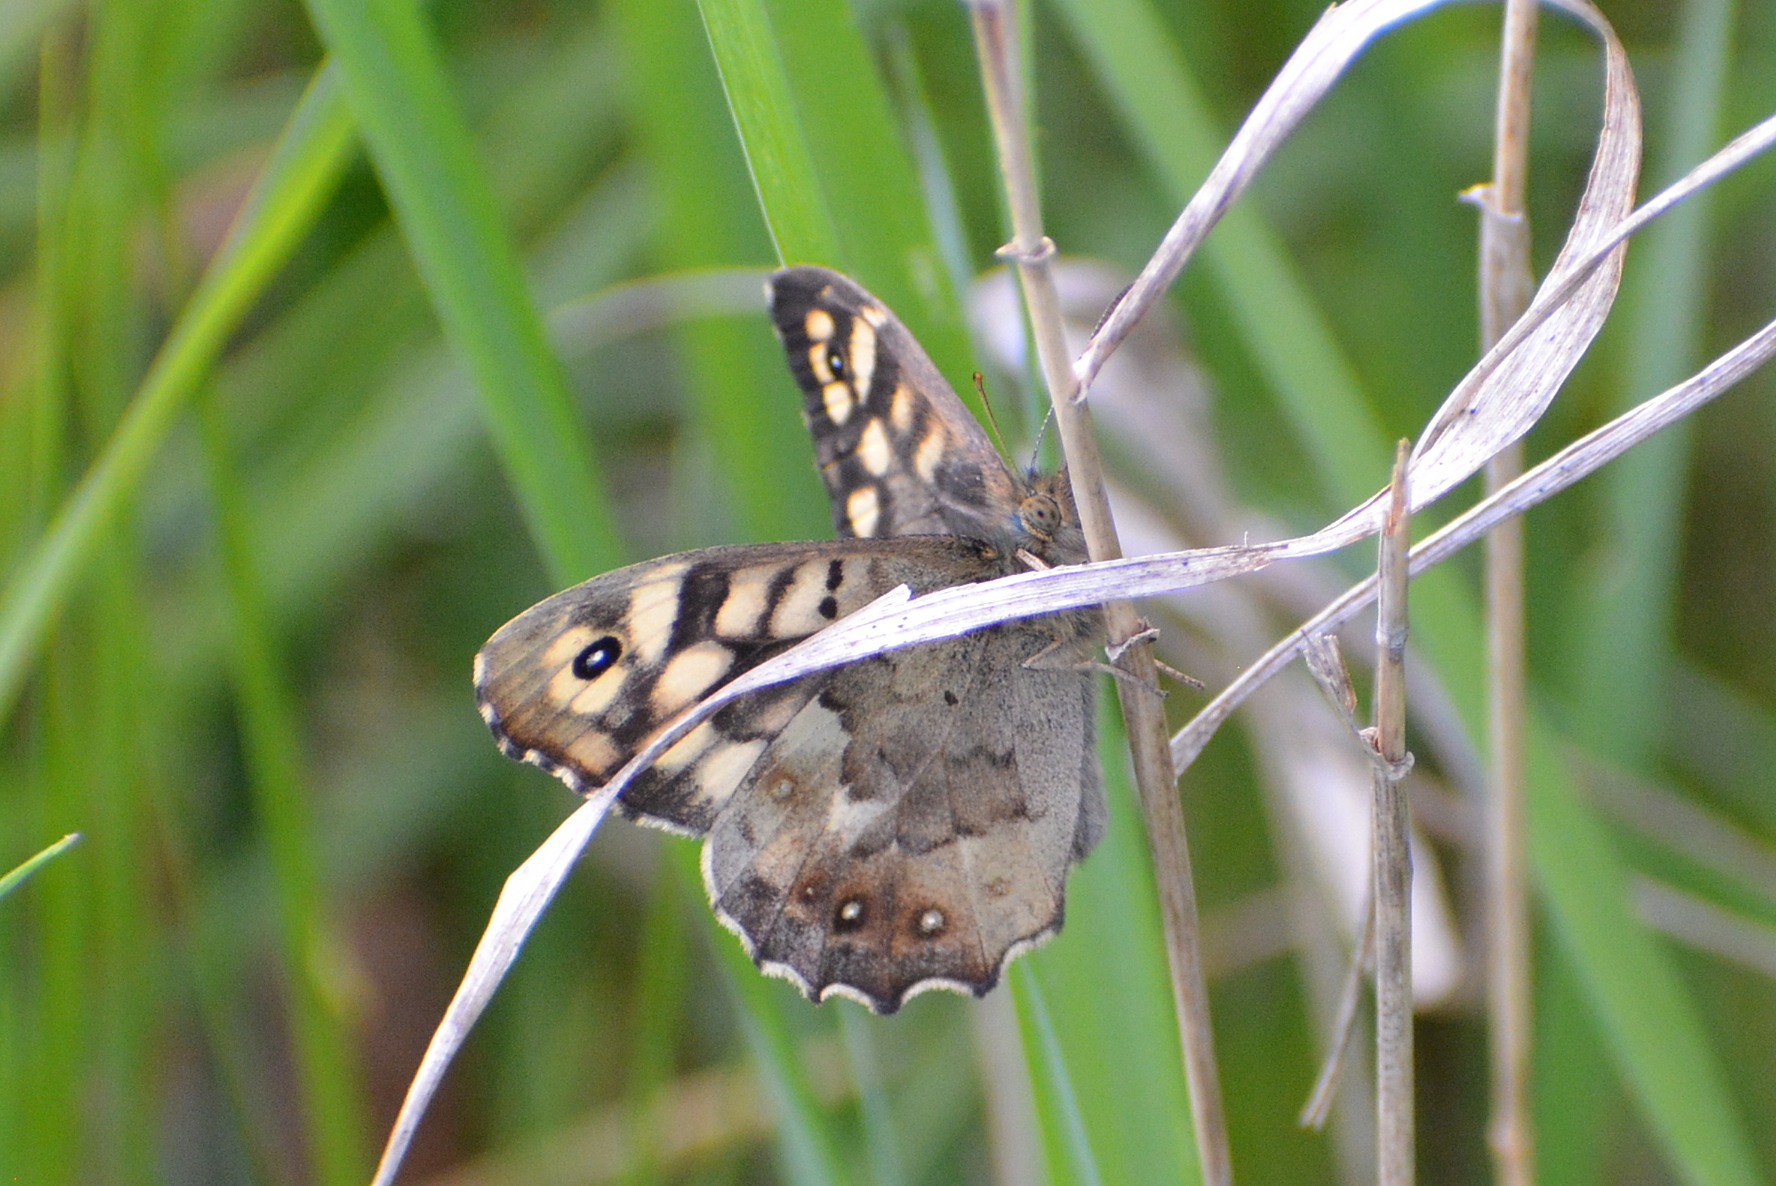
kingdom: Animalia
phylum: Arthropoda
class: Insecta
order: Lepidoptera
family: Nymphalidae
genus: Pararge
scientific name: Pararge aegeria
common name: Speckled wood
